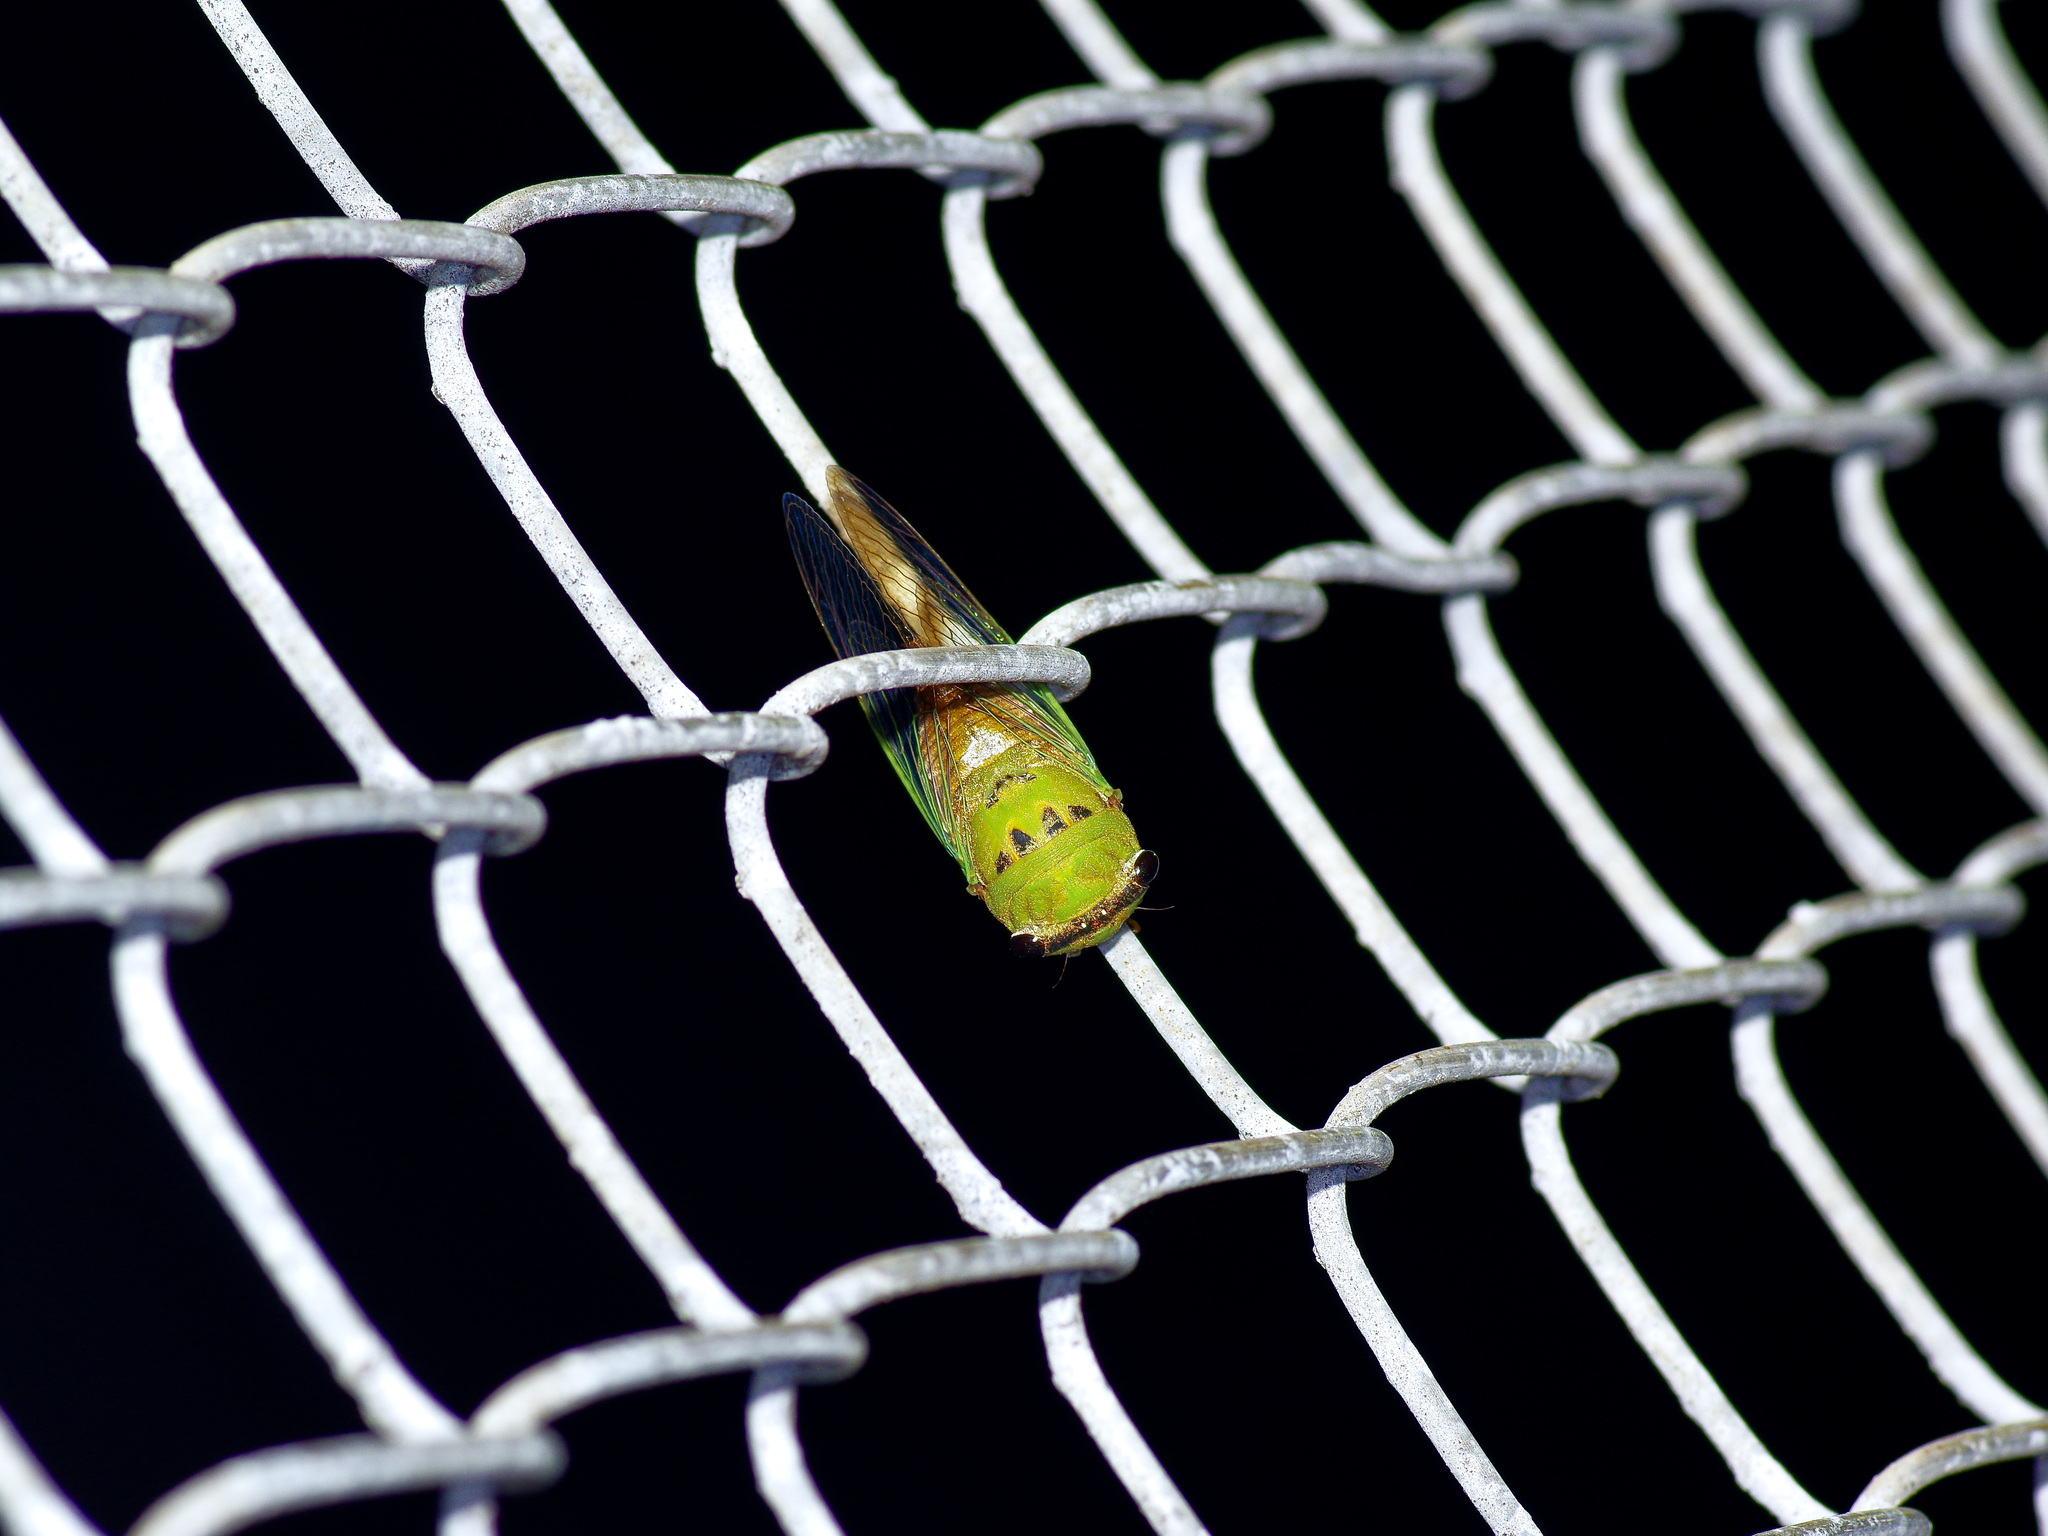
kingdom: Animalia
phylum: Arthropoda
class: Insecta
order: Hemiptera
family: Cicadidae
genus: Neotibicen
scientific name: Neotibicen superbus
